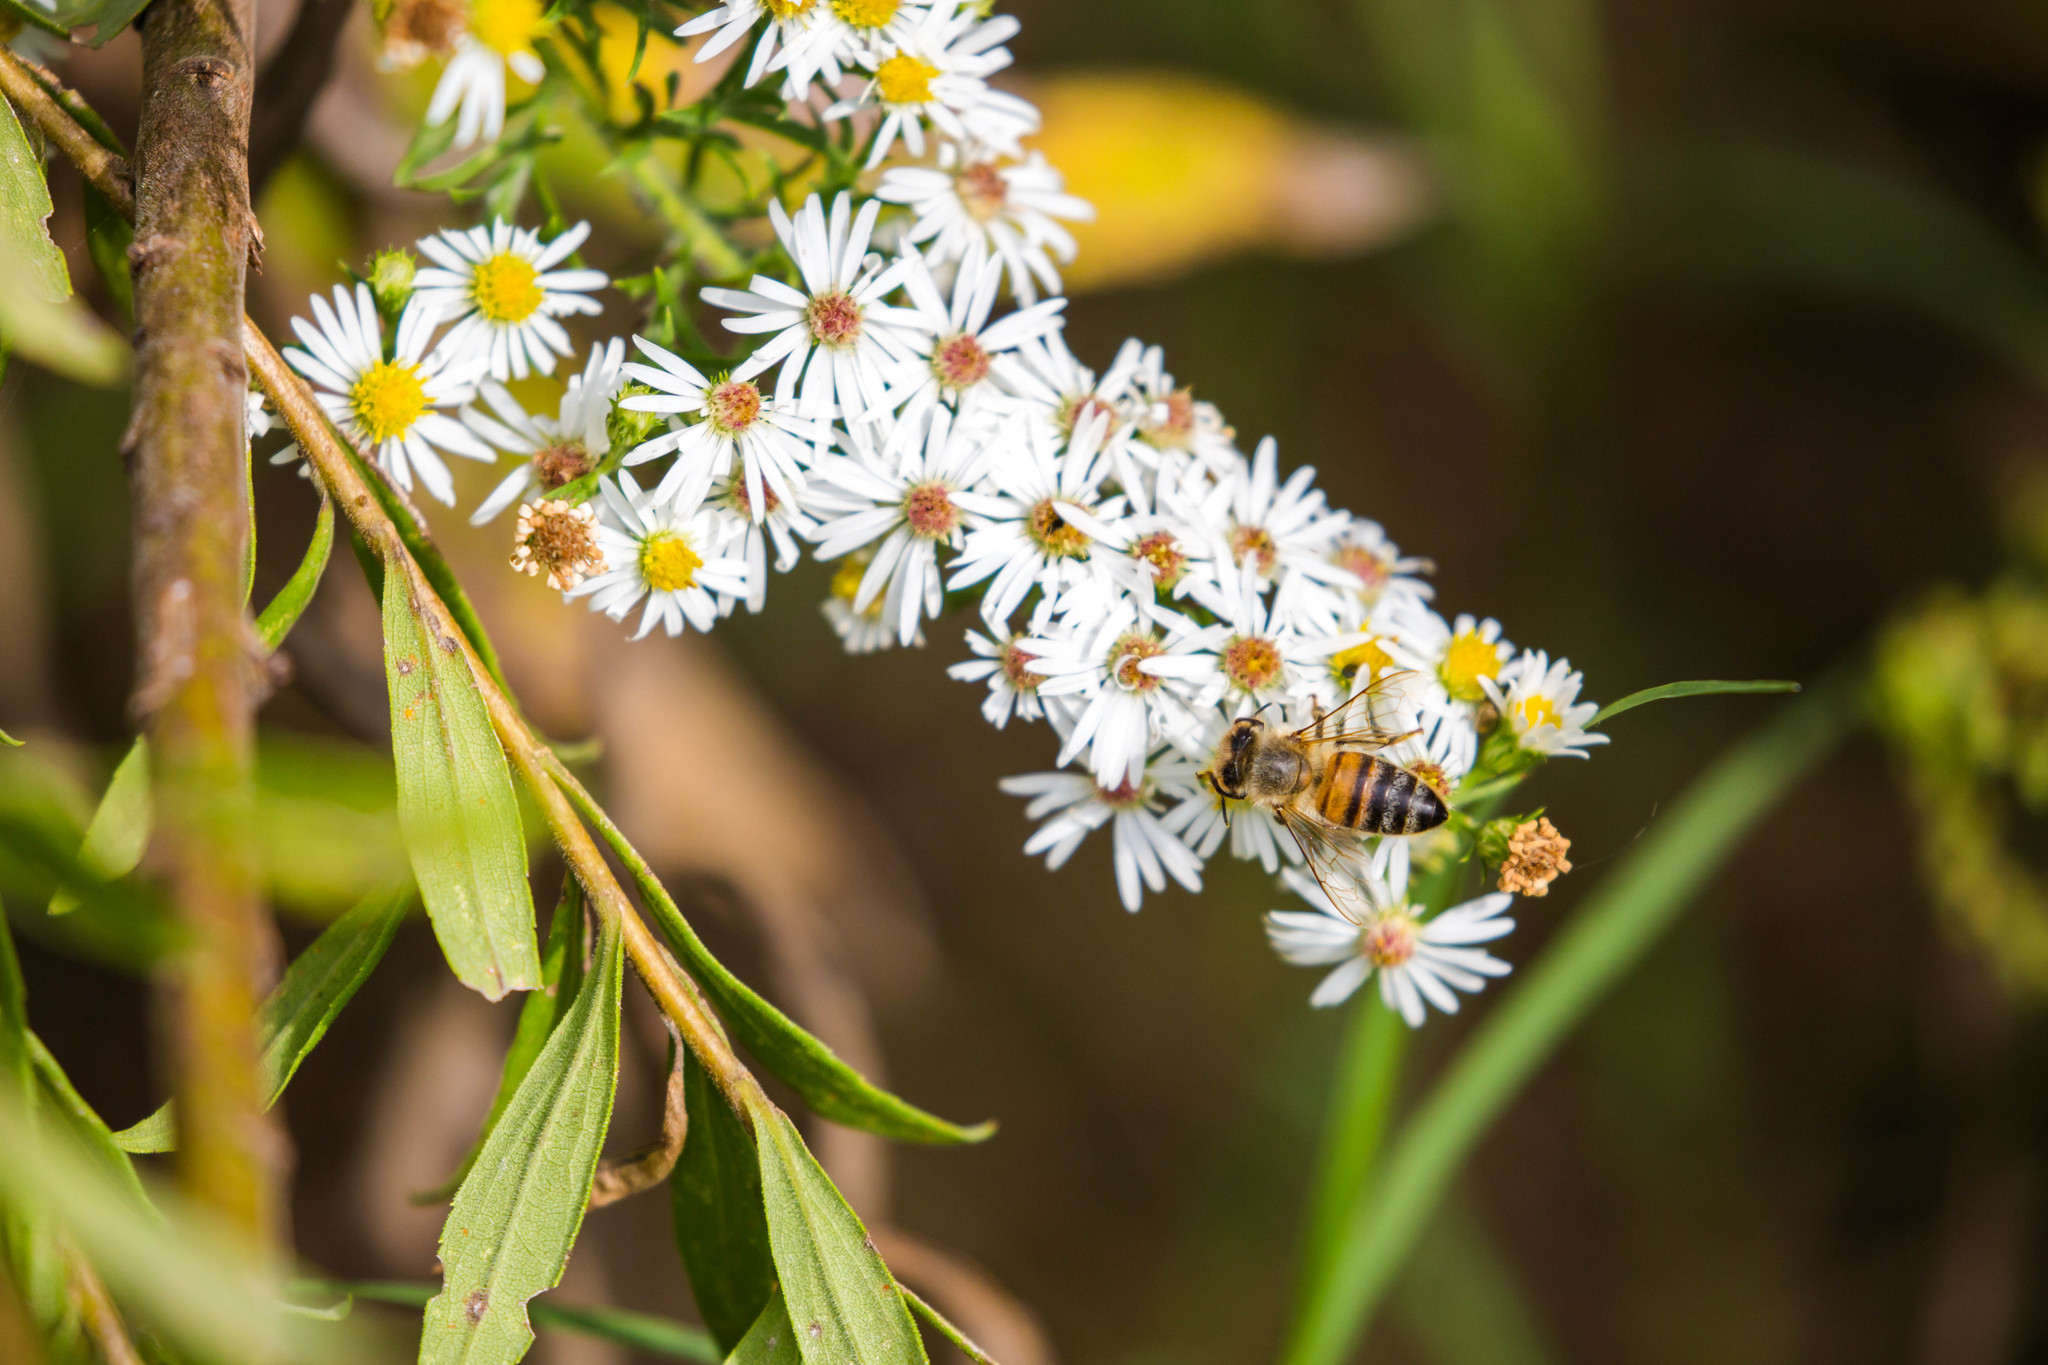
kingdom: Animalia
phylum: Arthropoda
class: Insecta
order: Hymenoptera
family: Apidae
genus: Apis
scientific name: Apis mellifera
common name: Honey bee
